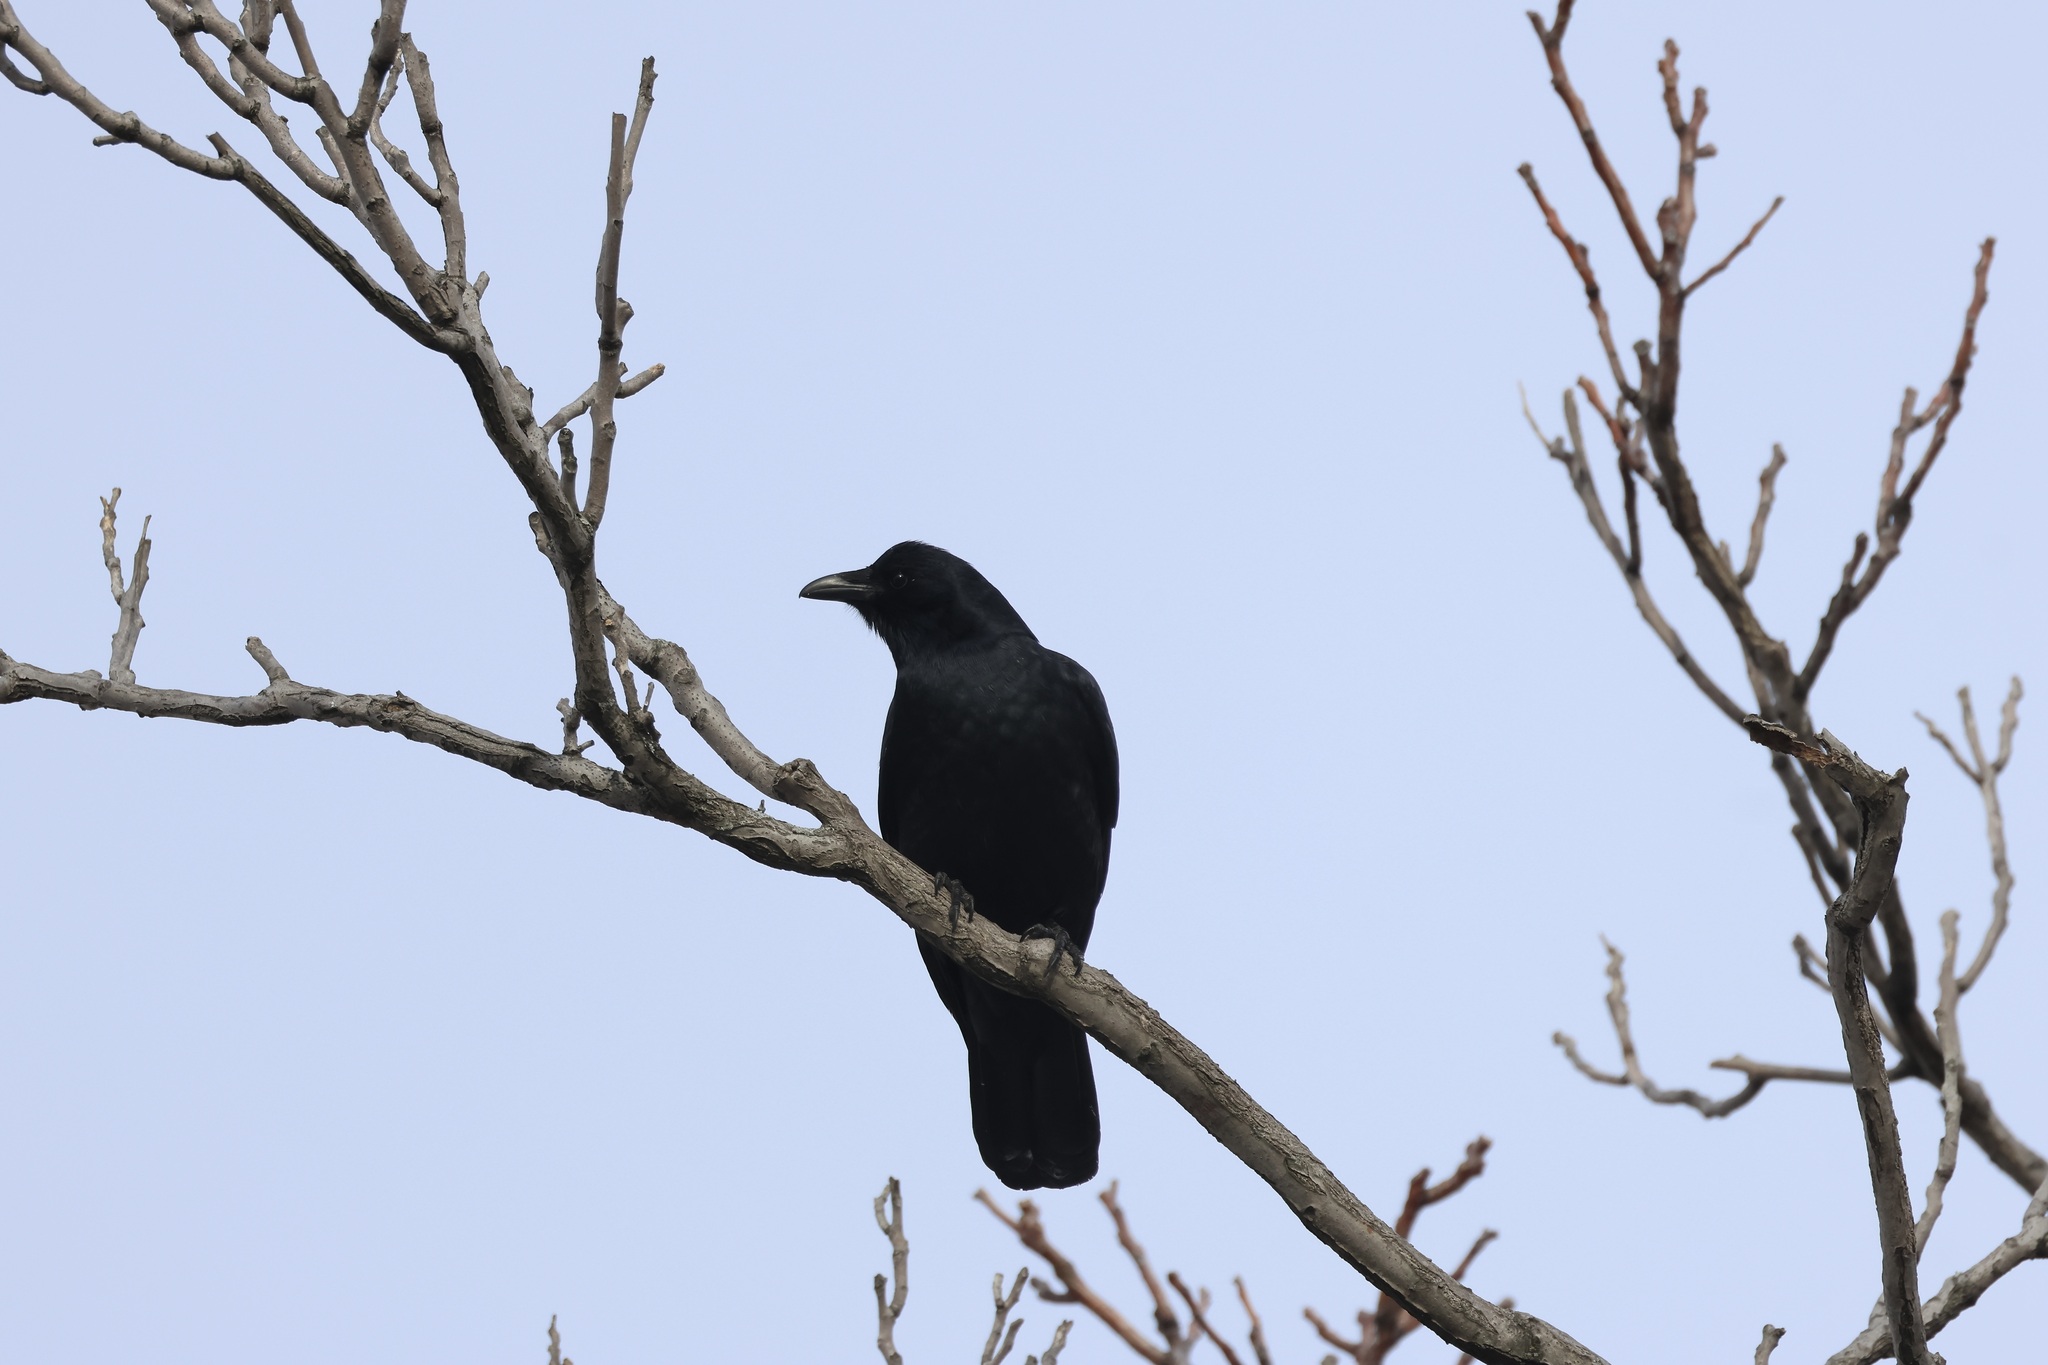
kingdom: Animalia
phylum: Chordata
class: Aves
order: Passeriformes
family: Corvidae
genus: Corvus
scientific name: Corvus ossifragus
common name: Fish crow
